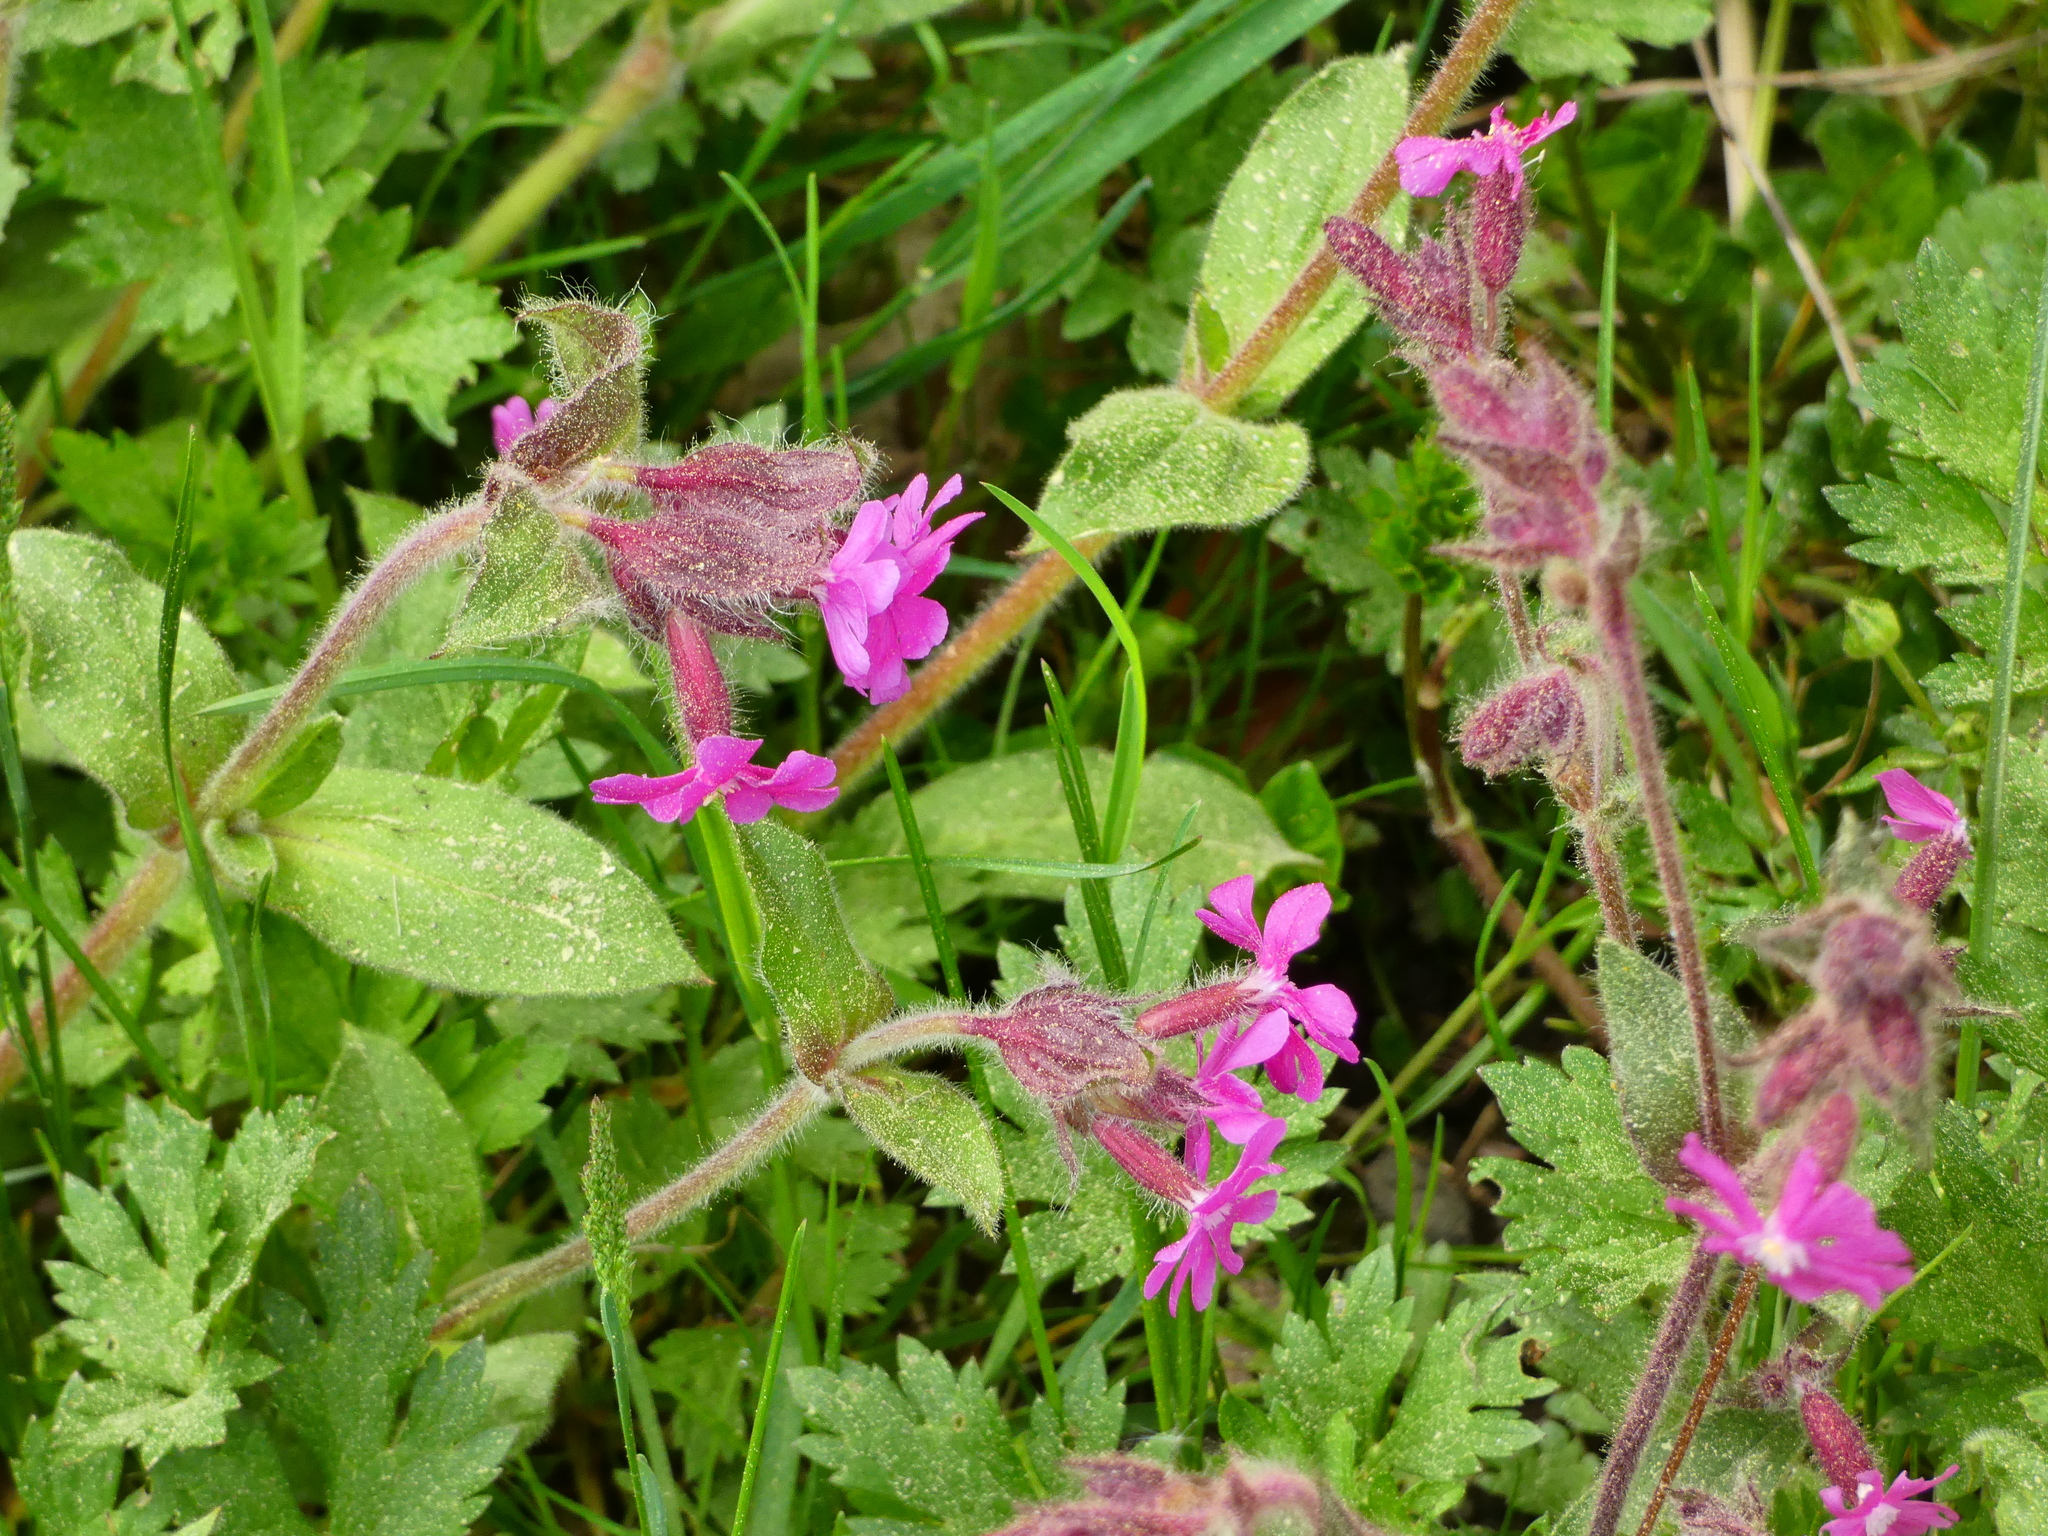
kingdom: Plantae
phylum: Tracheophyta
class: Magnoliopsida
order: Caryophyllales
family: Caryophyllaceae
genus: Silene
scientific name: Silene dioica
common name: Red campion
